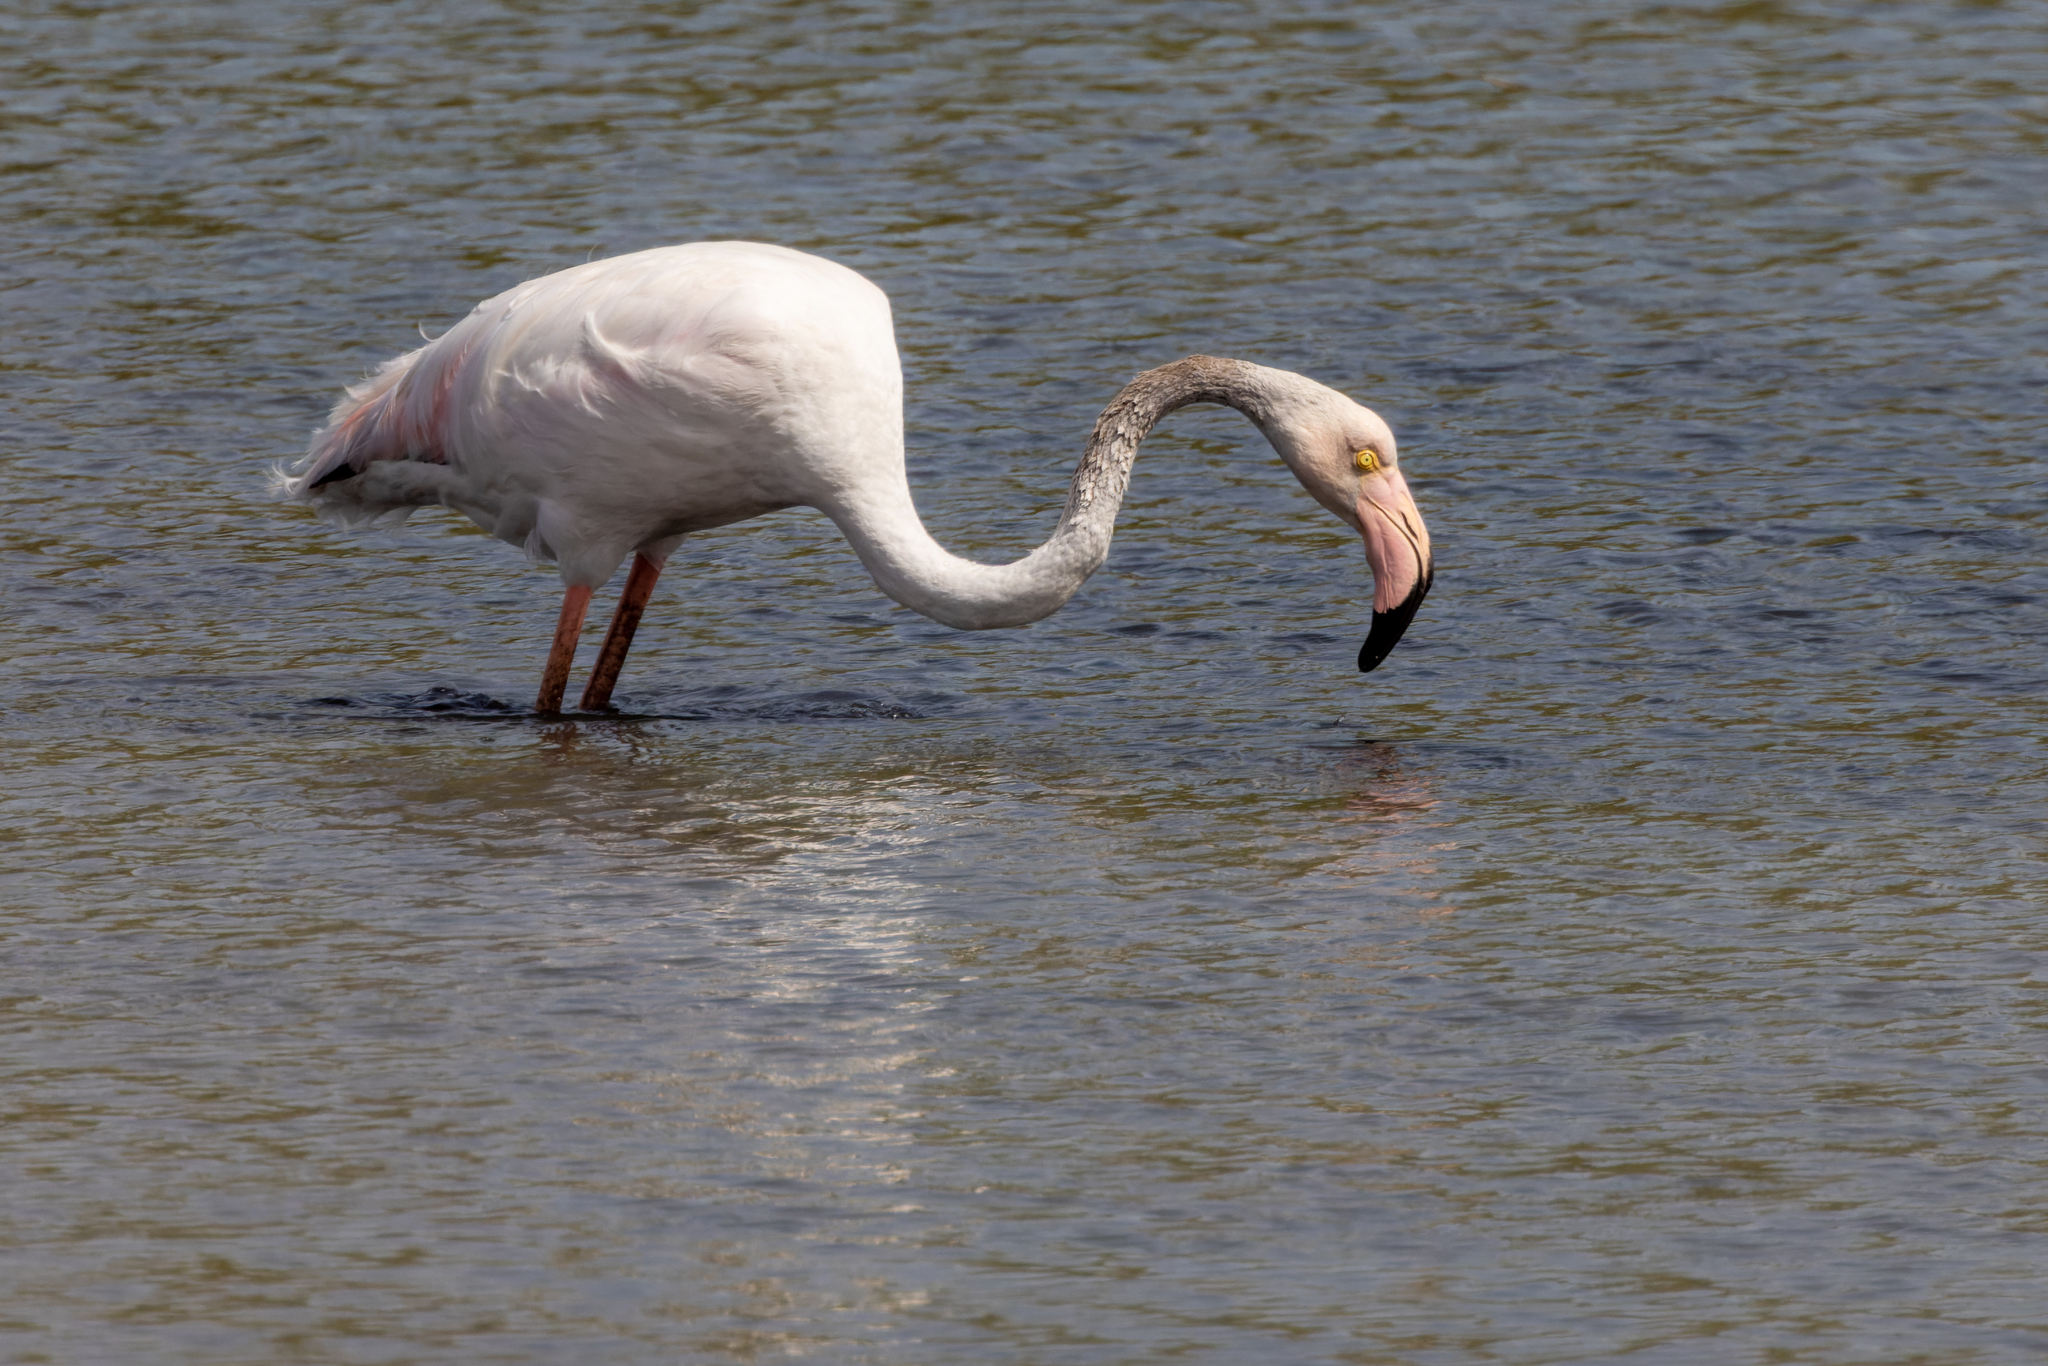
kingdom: Animalia
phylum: Chordata
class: Aves
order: Phoenicopteriformes
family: Phoenicopteridae
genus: Phoenicopterus
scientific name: Phoenicopterus roseus
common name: Greater flamingo
